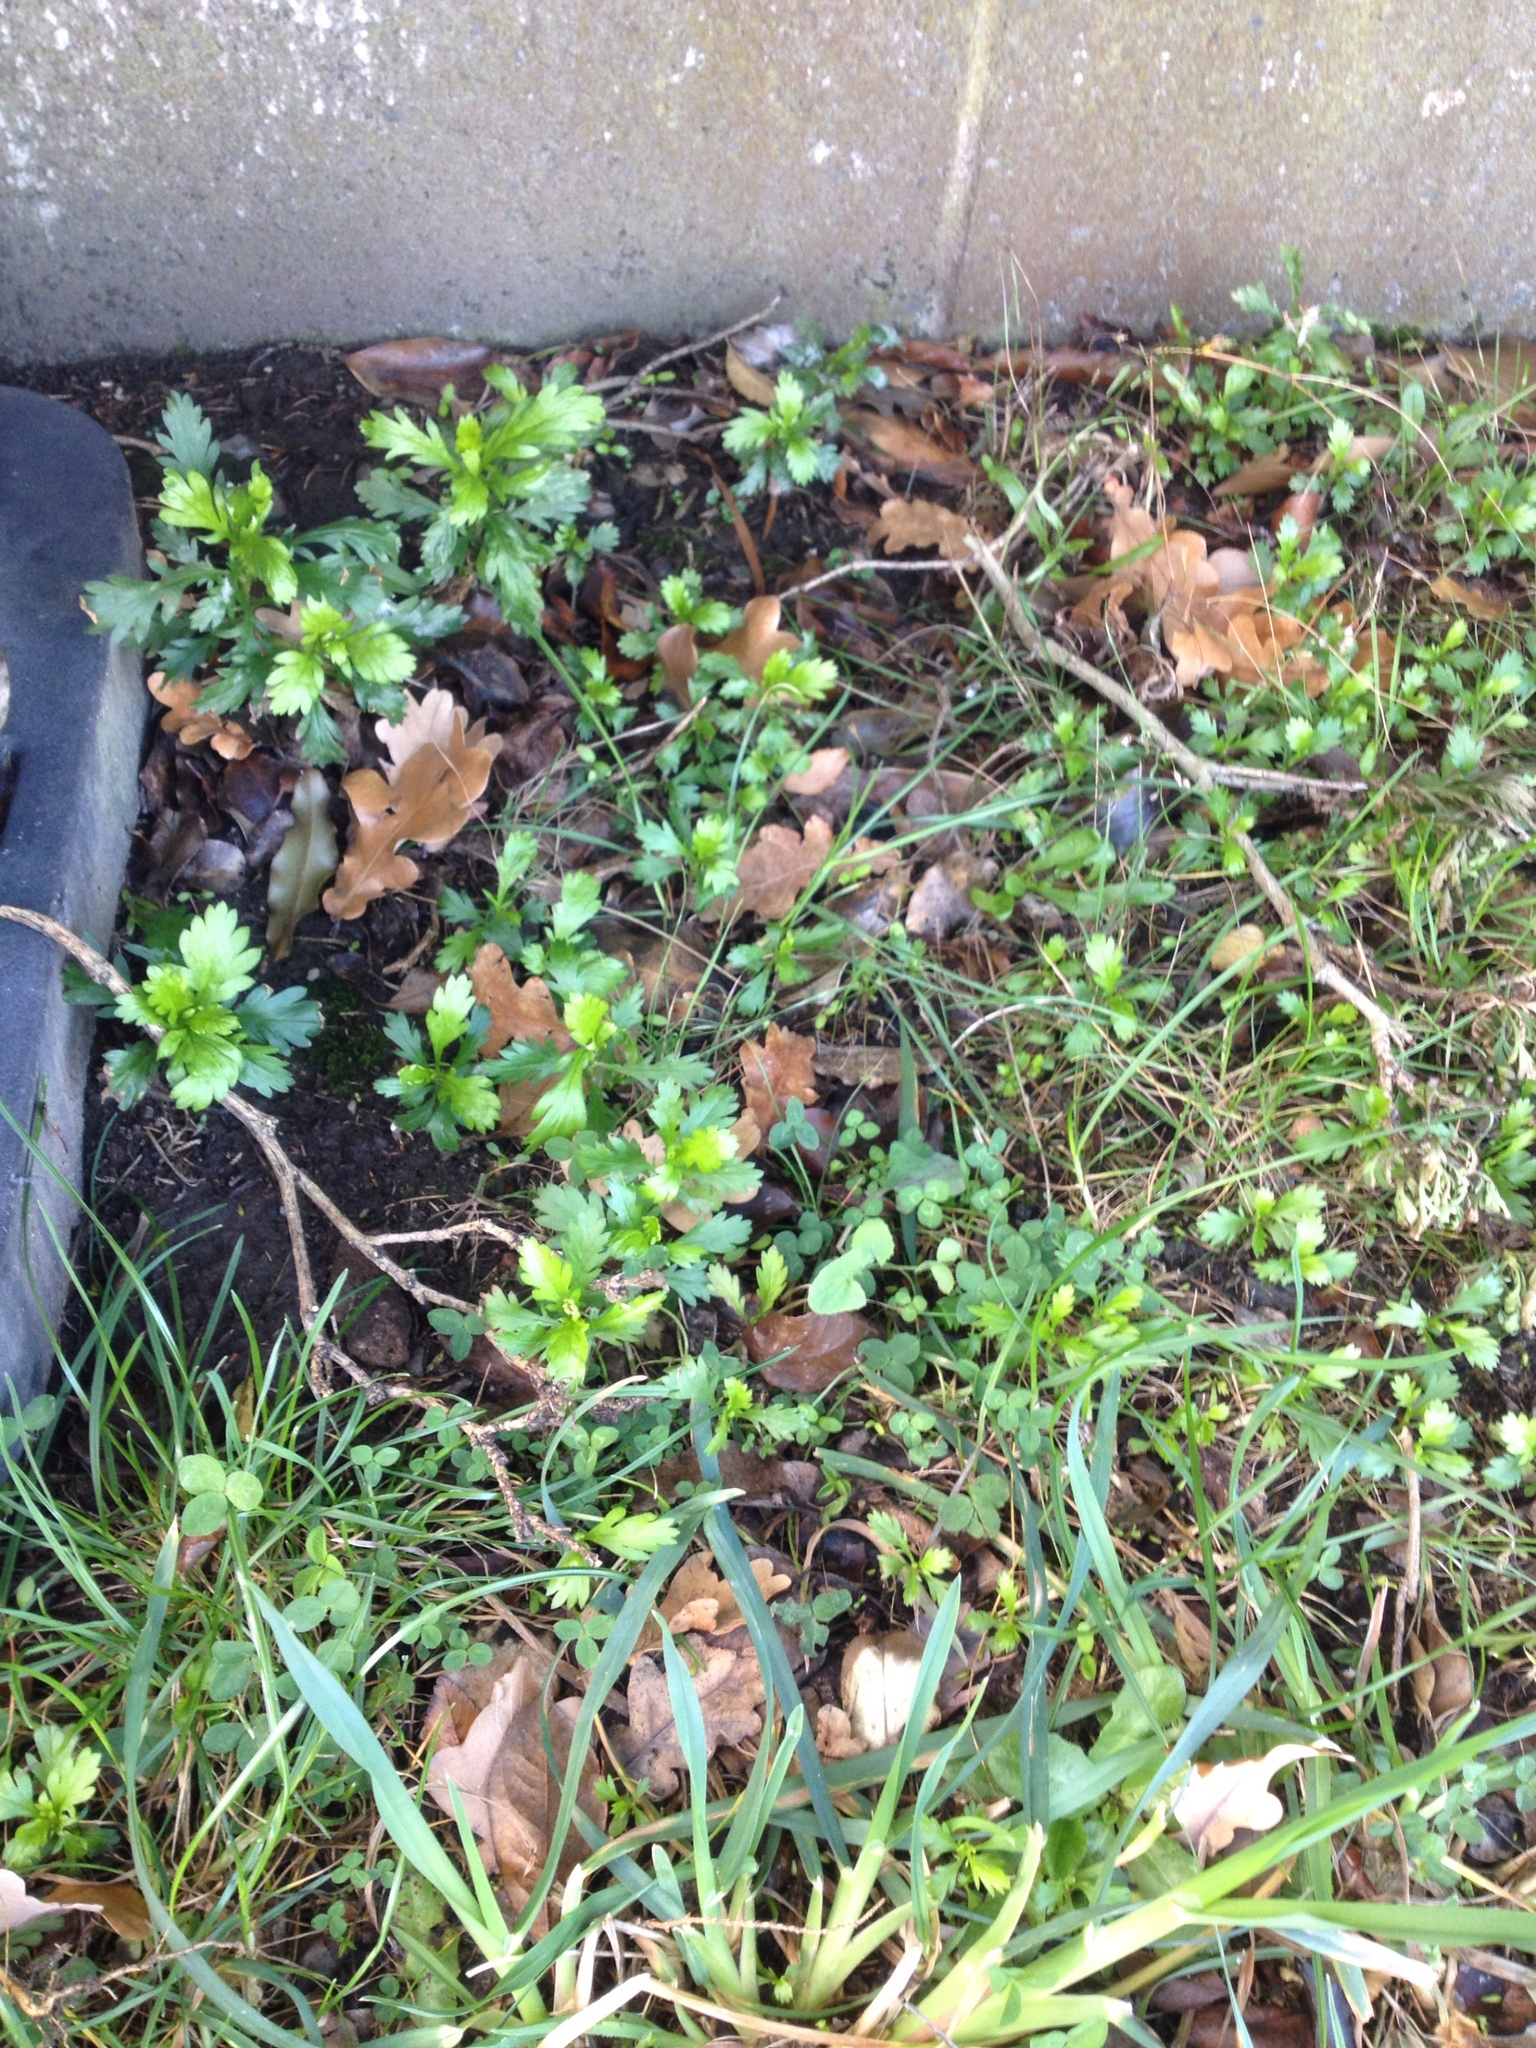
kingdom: Plantae
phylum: Tracheophyta
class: Magnoliopsida
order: Asterales
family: Asteraceae
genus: Euryops
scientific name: Euryops chrysanthemoides
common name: Bull's eye
